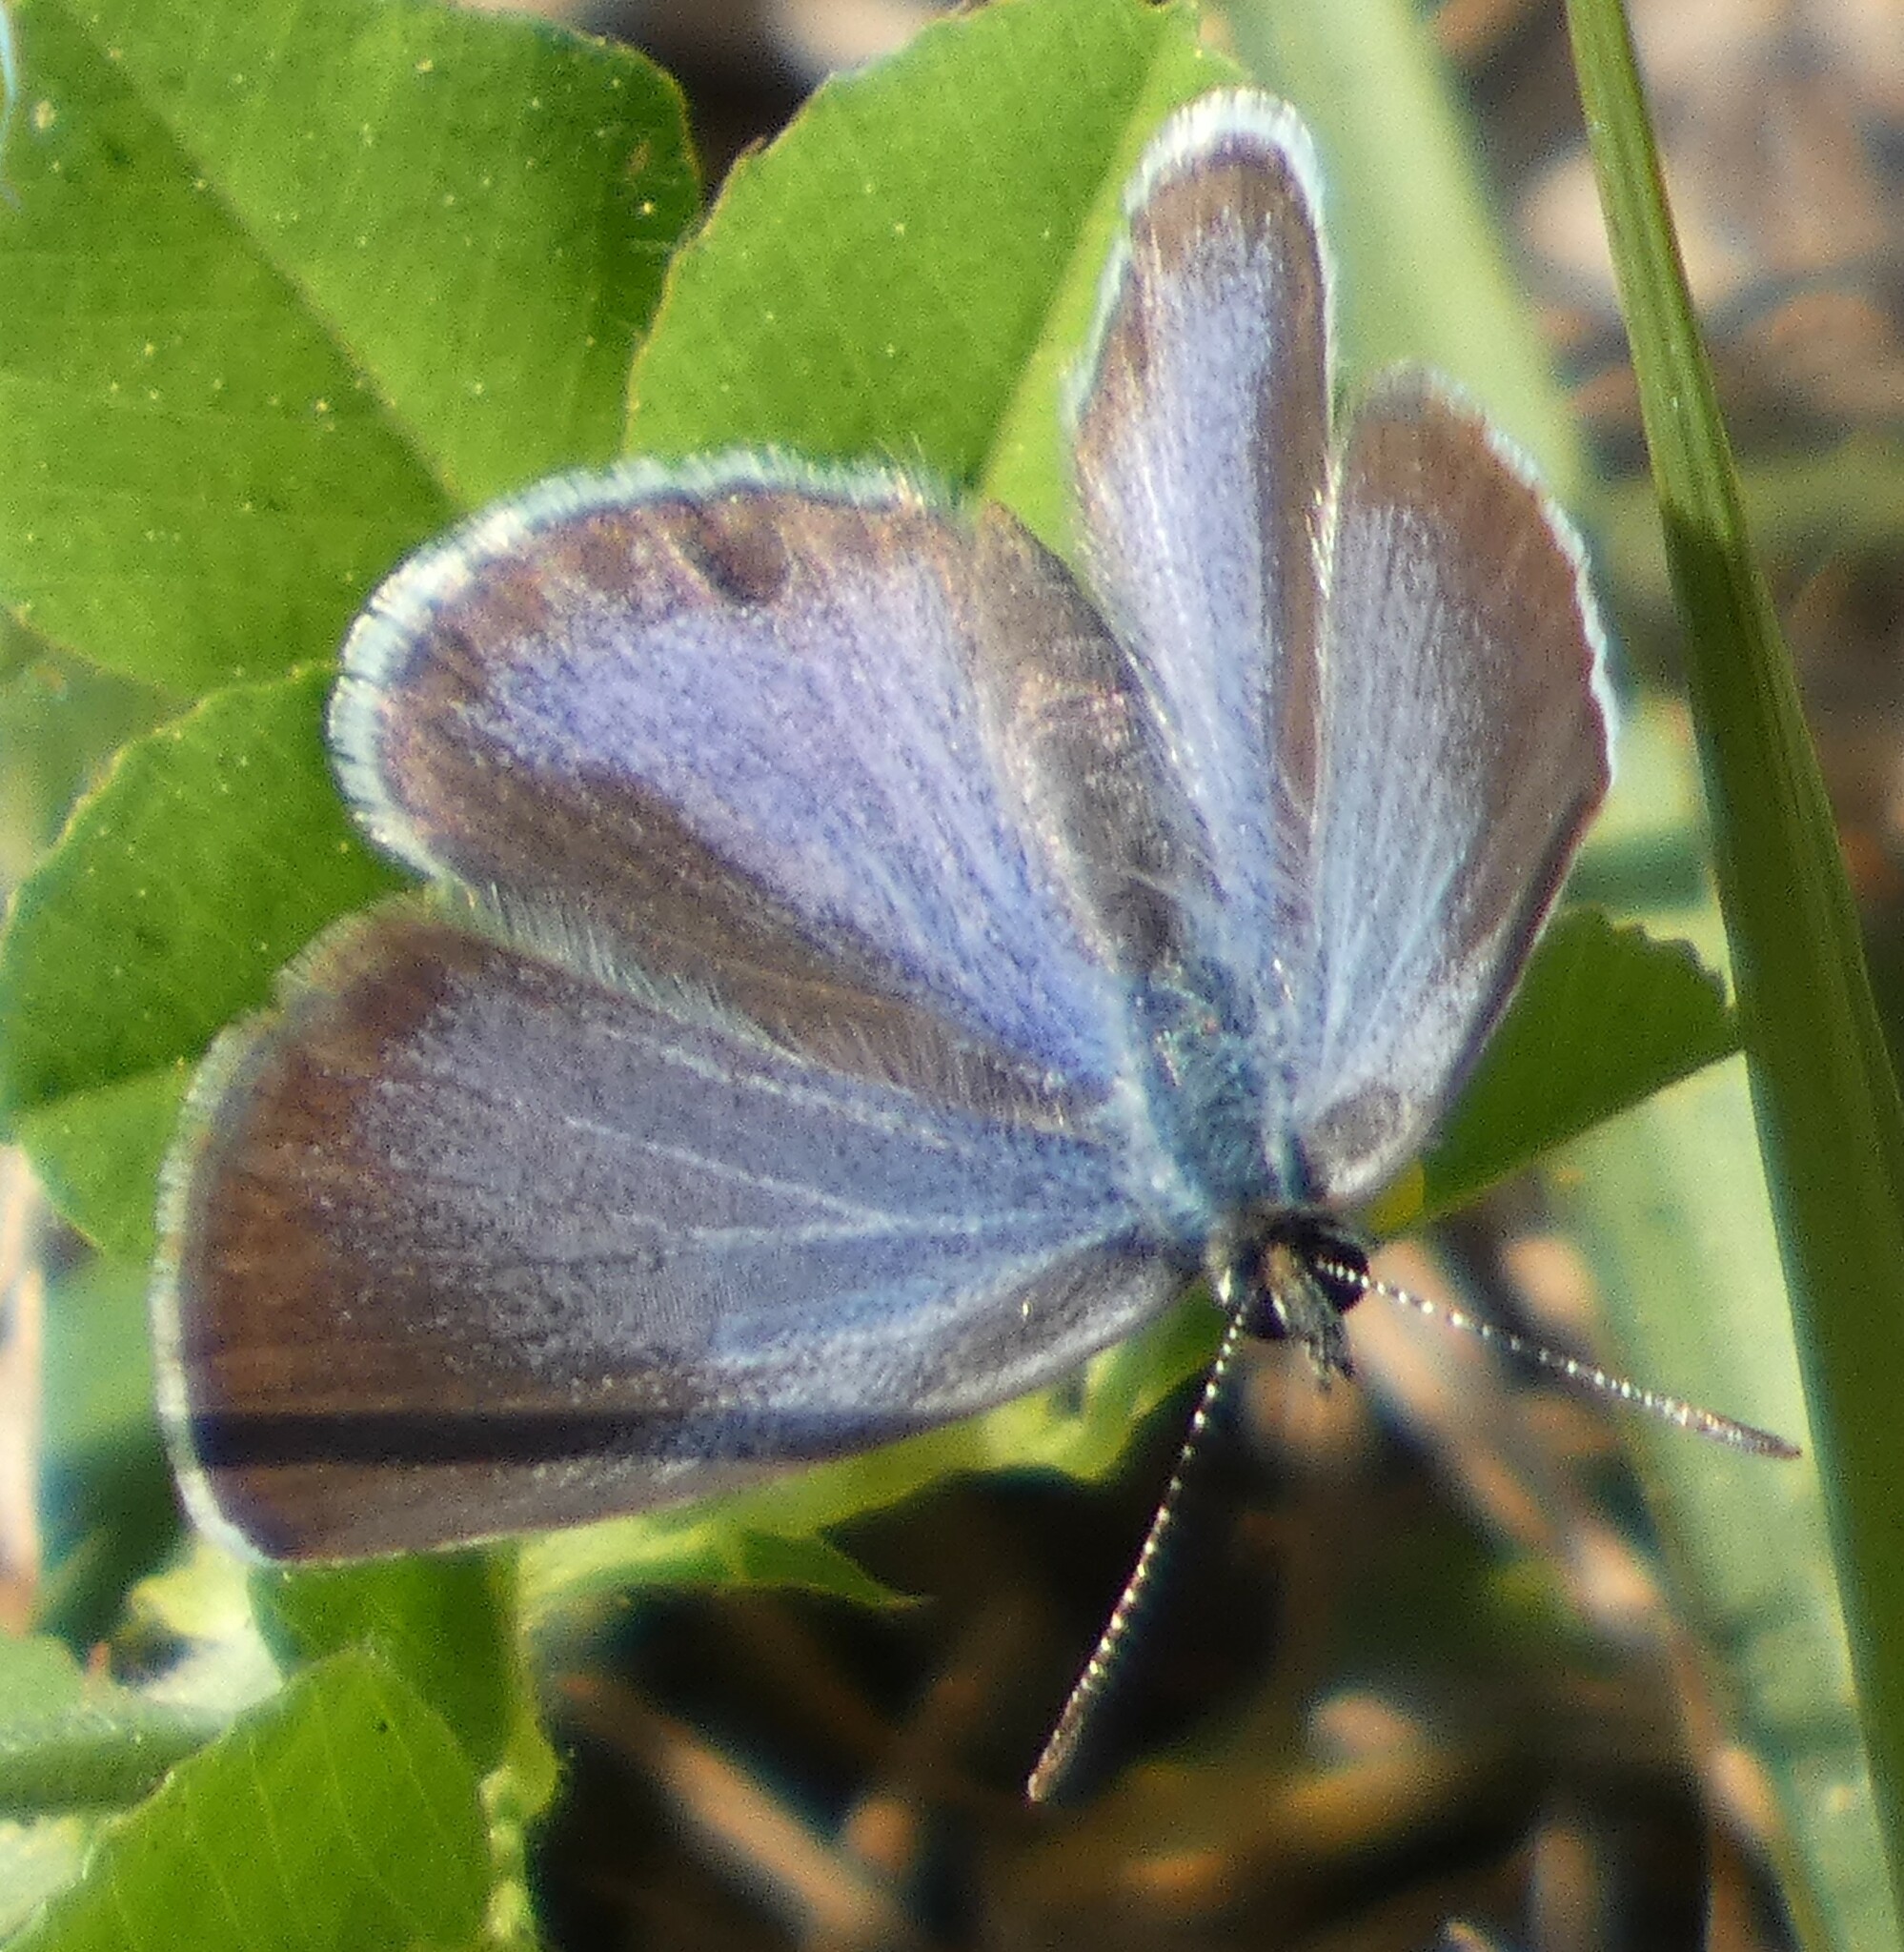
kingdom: Animalia
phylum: Arthropoda
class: Insecta
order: Lepidoptera
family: Lycaenidae
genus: Hemiargus
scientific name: Hemiargus ceraunus
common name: Ceraunus blue
